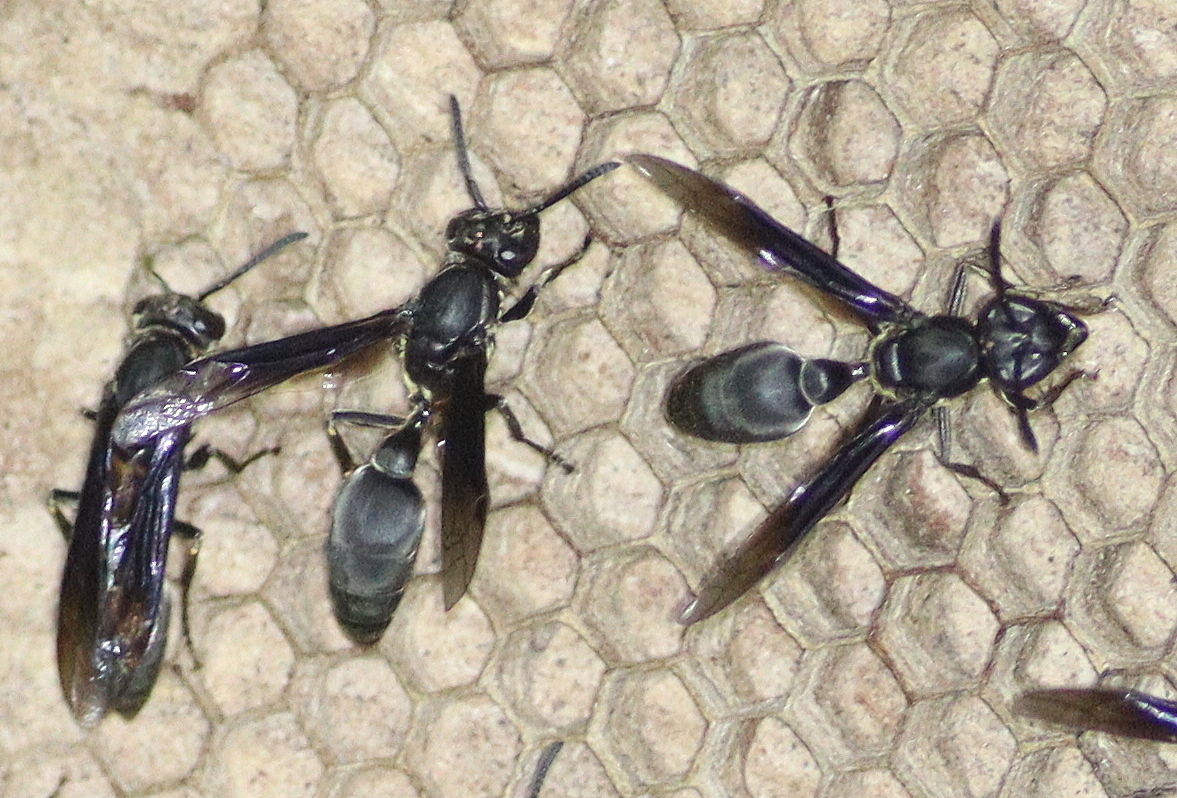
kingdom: Animalia
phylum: Arthropoda
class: Insecta
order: Hymenoptera
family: Eumenidae
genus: Polybia
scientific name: Polybia ignobilis
